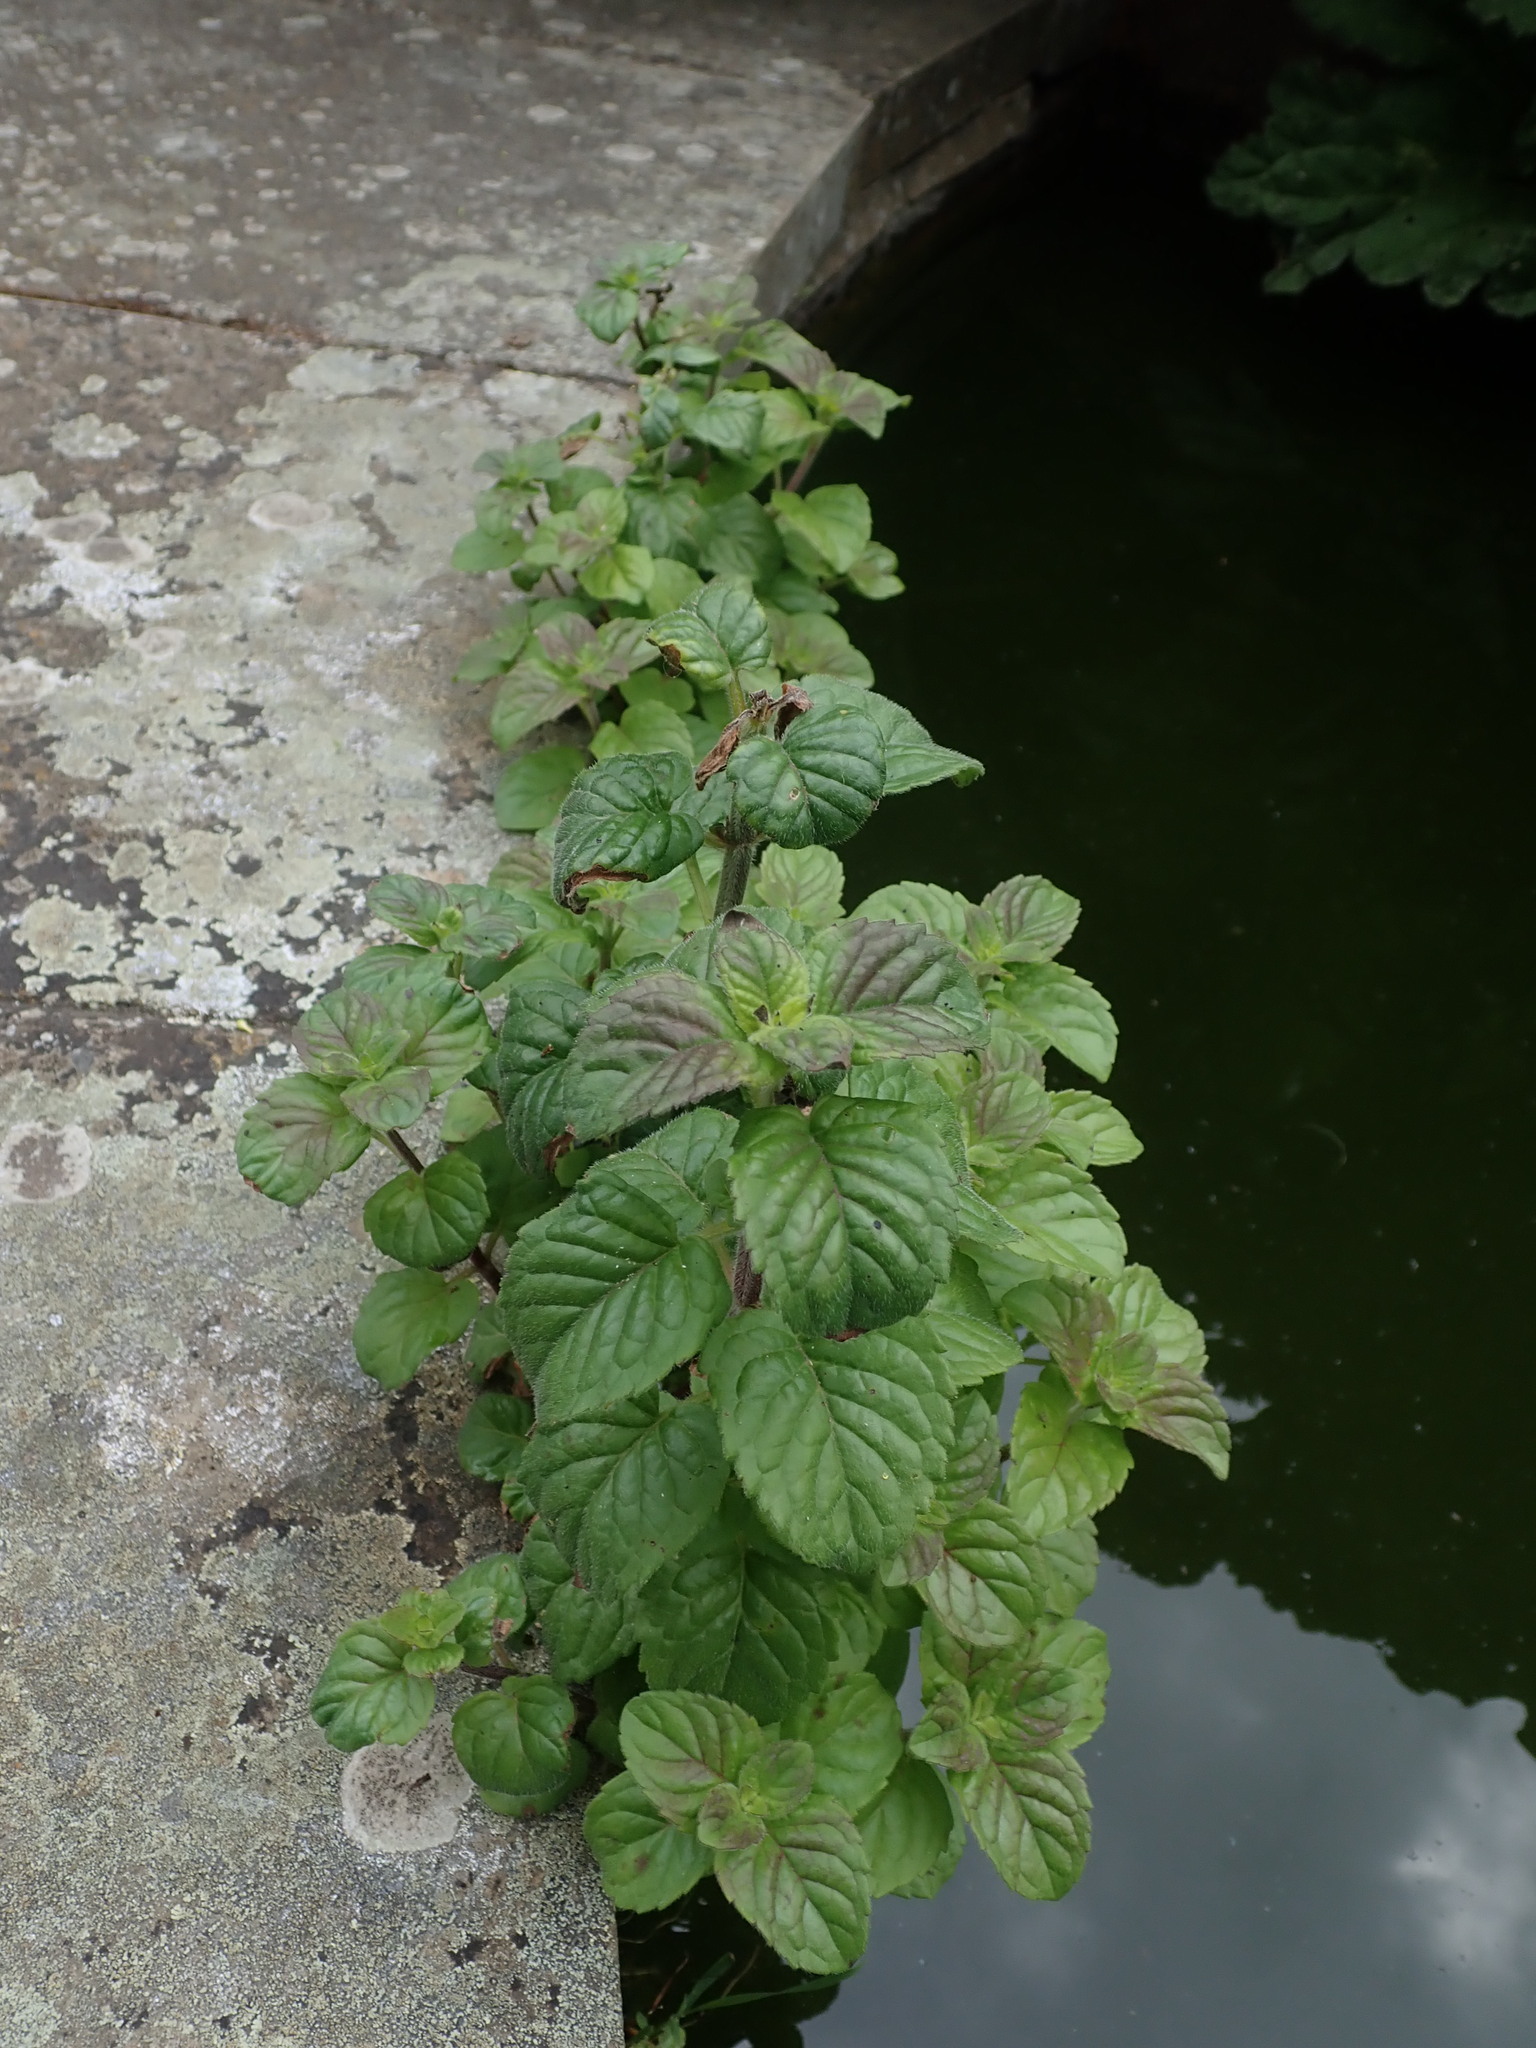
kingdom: Plantae
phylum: Tracheophyta
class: Magnoliopsida
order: Lamiales
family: Lamiaceae
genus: Mentha
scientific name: Mentha aquatica
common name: Water mint
